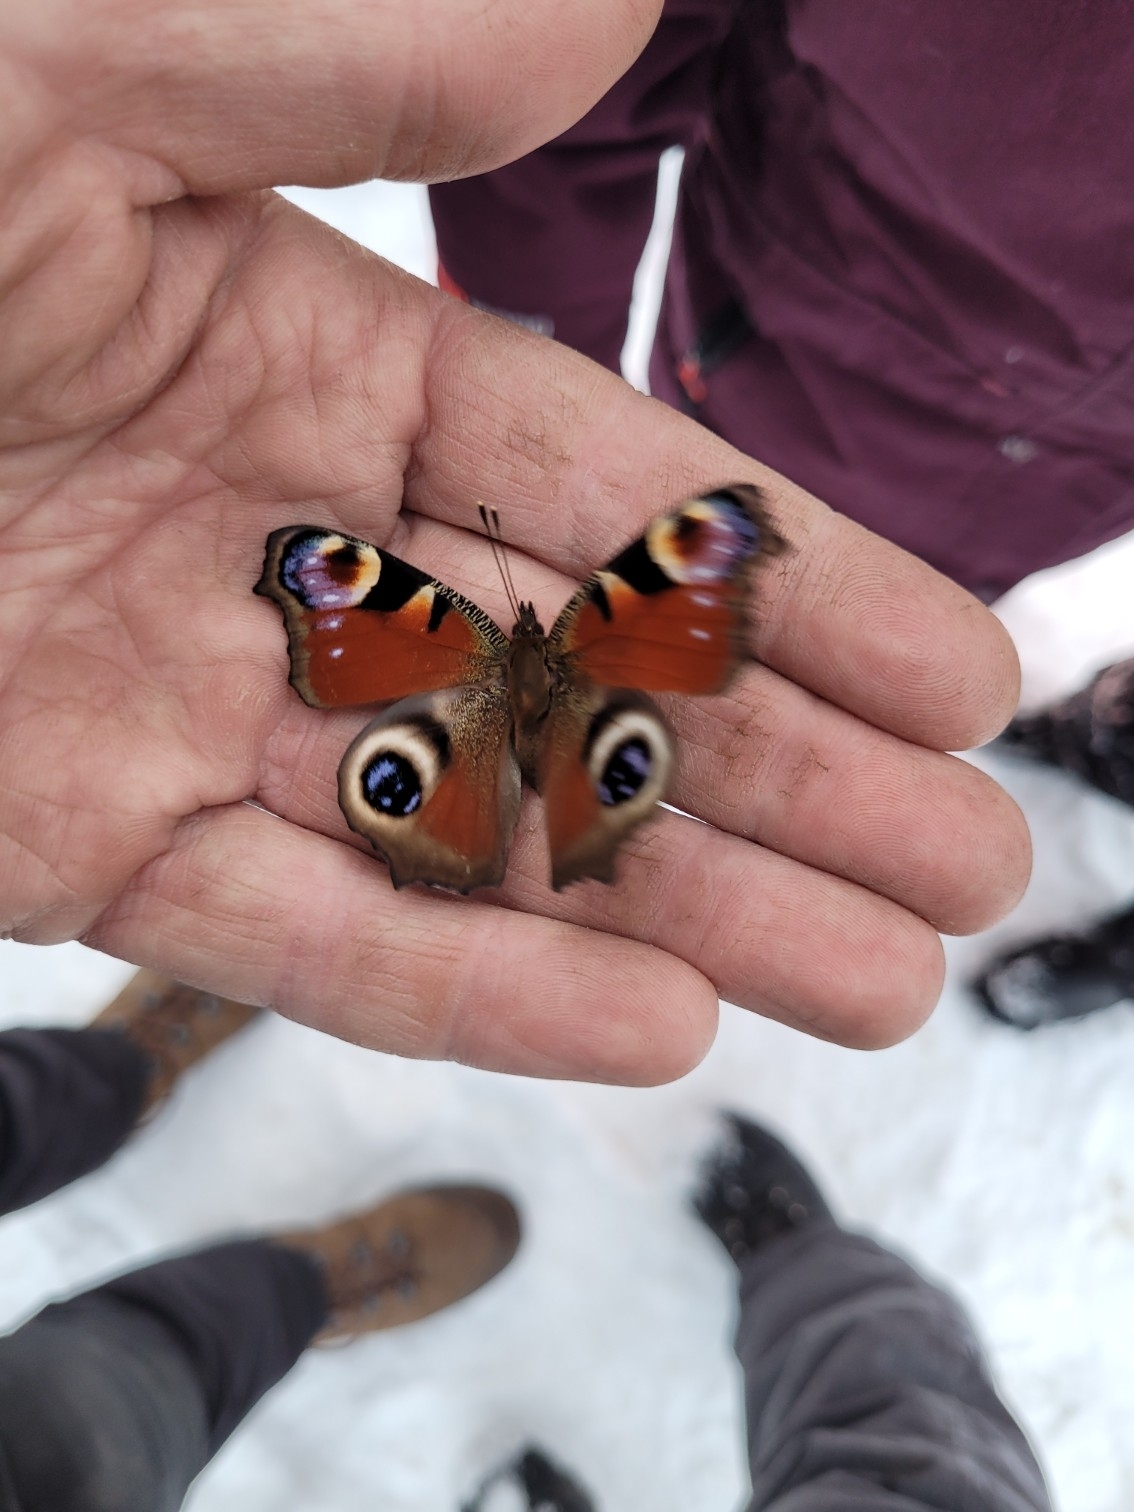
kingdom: Animalia
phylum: Arthropoda
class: Insecta
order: Lepidoptera
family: Nymphalidae
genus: Aglais
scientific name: Aglais io
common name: Peacock
